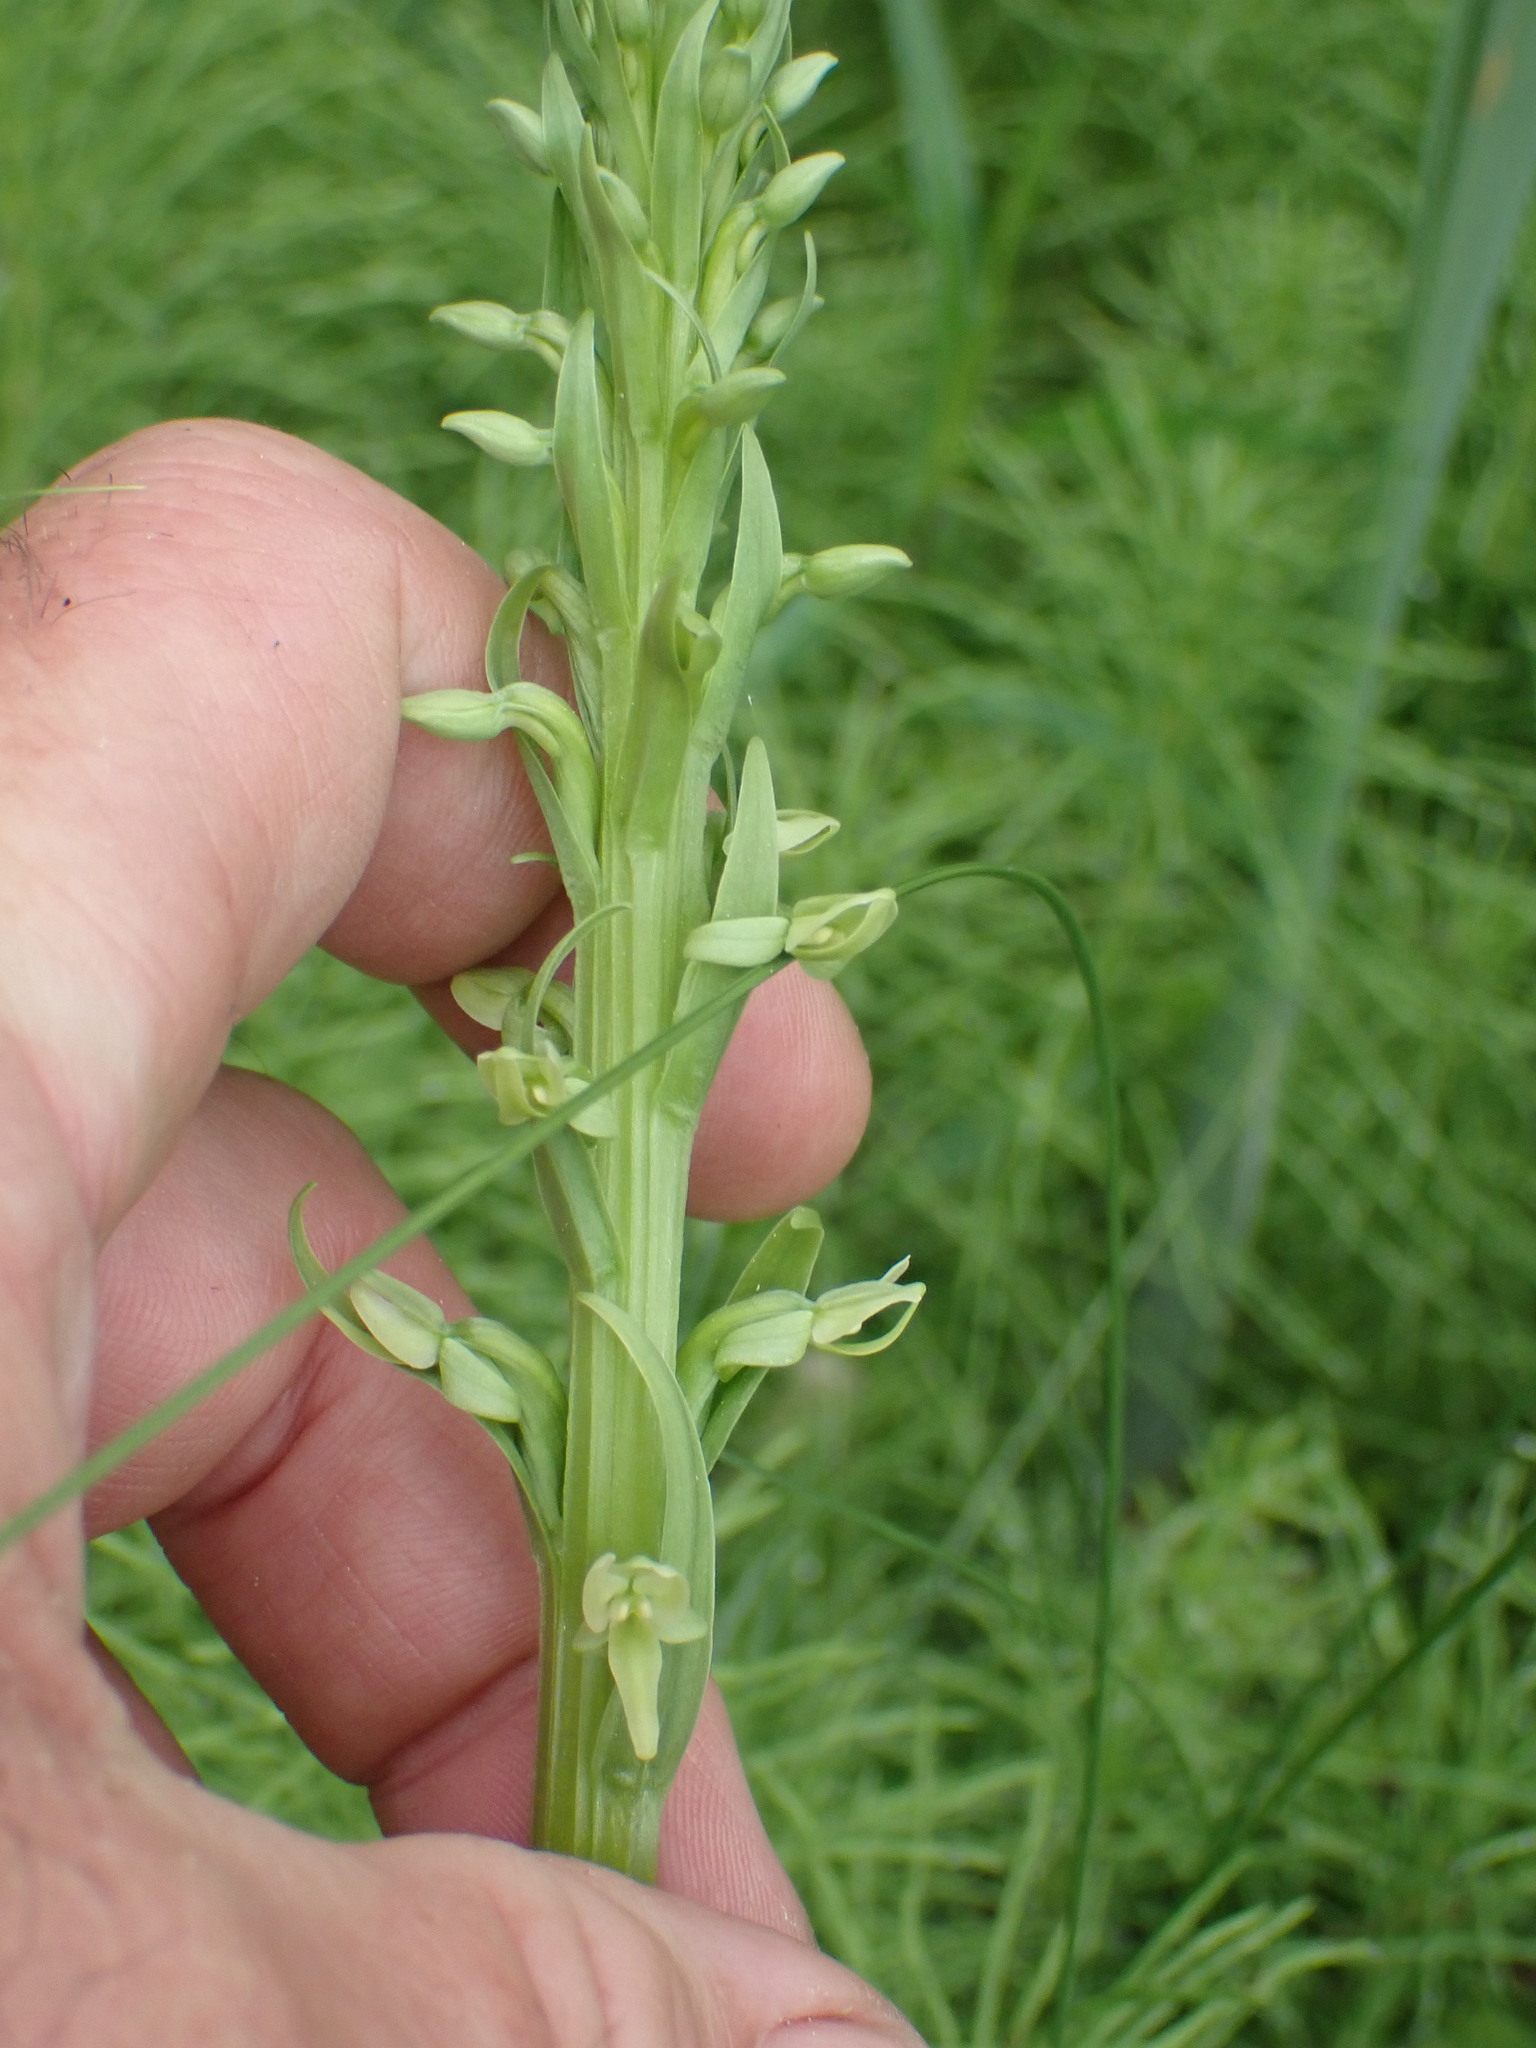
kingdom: Plantae
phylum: Tracheophyta
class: Liliopsida
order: Asparagales
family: Orchidaceae
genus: Platanthera
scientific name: Platanthera huronensis
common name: Fragrant green orchid
